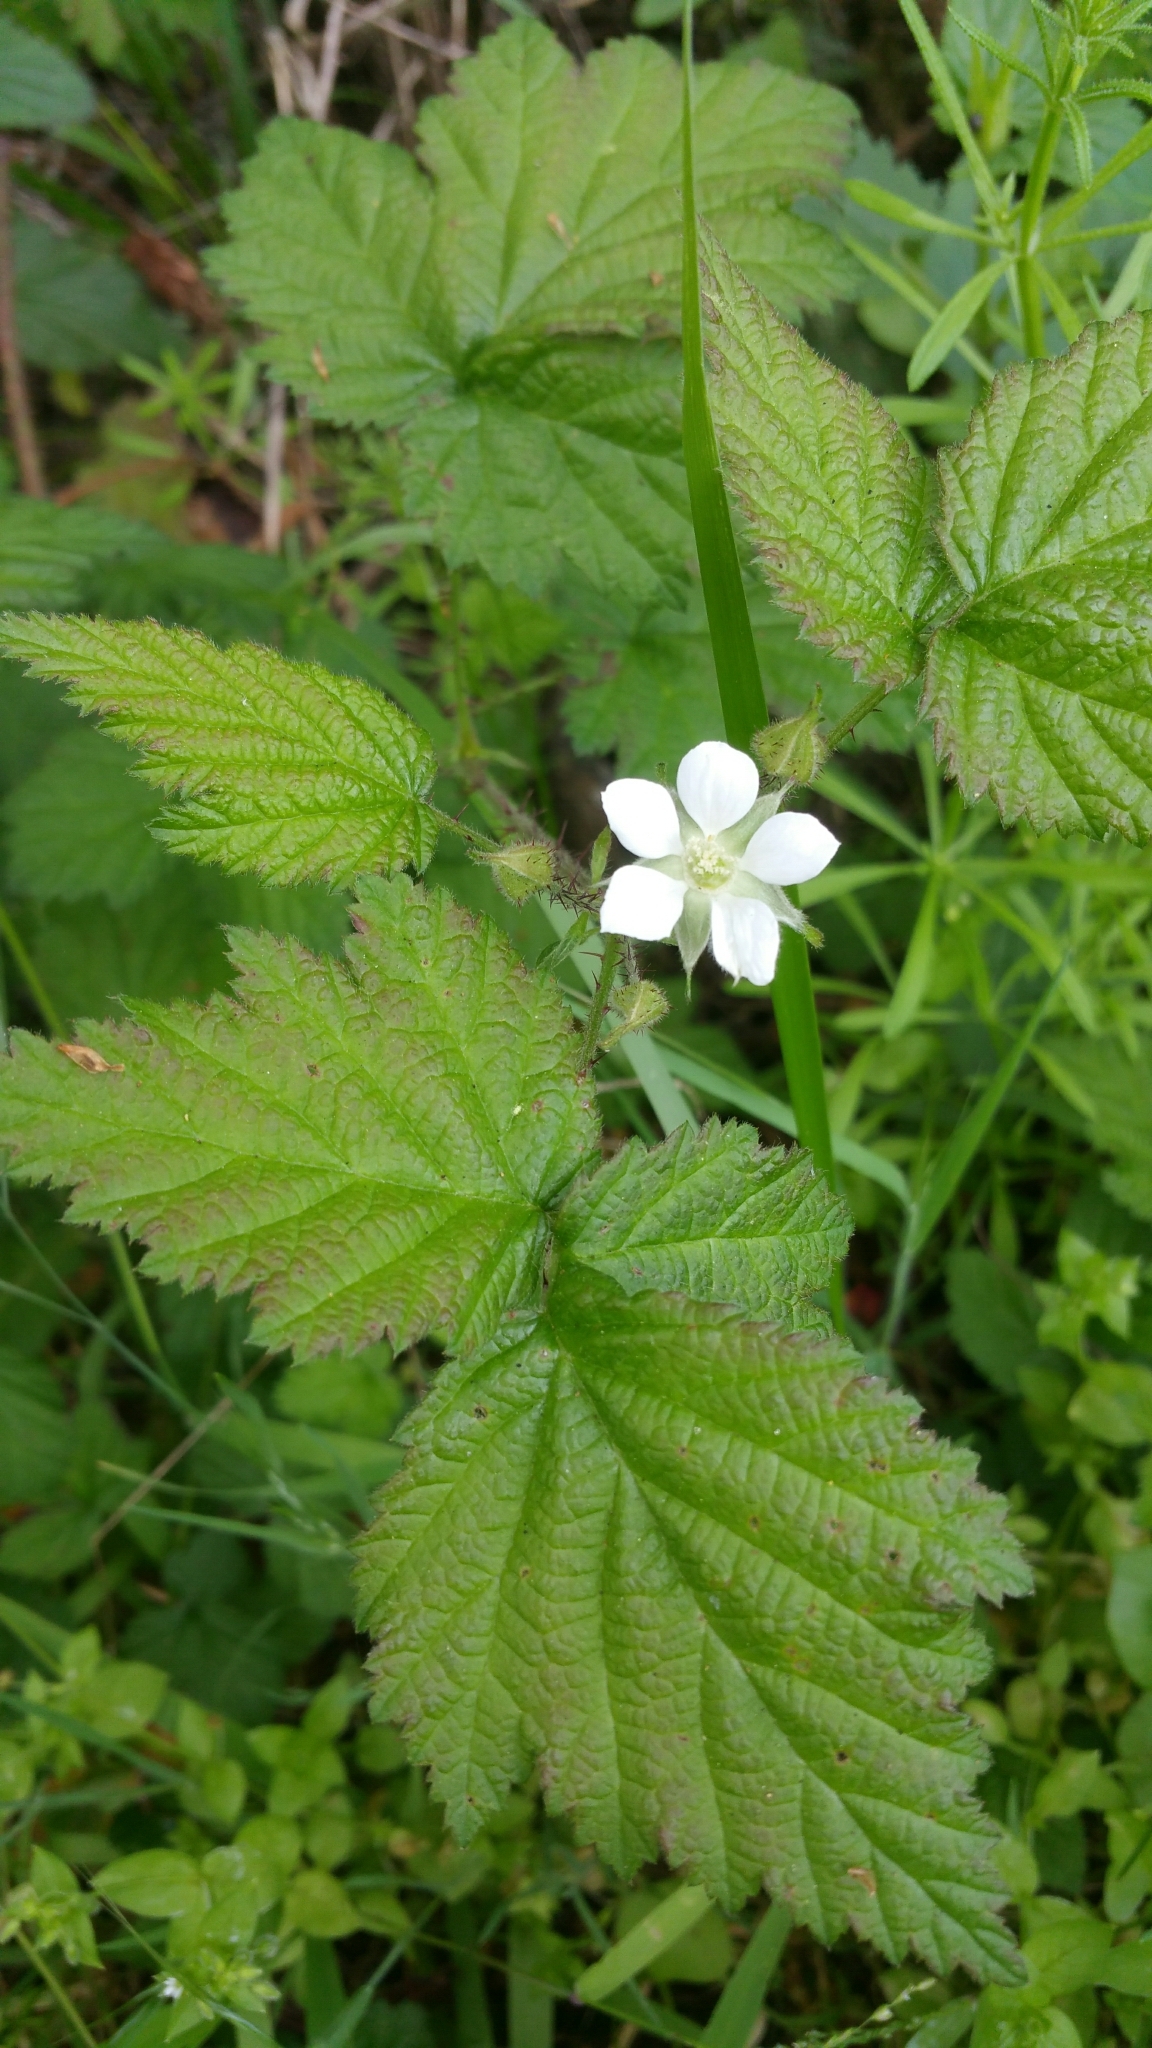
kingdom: Plantae
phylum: Tracheophyta
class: Magnoliopsida
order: Rosales
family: Rosaceae
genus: Rubus
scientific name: Rubus ursinus
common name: Pacific blackberry
